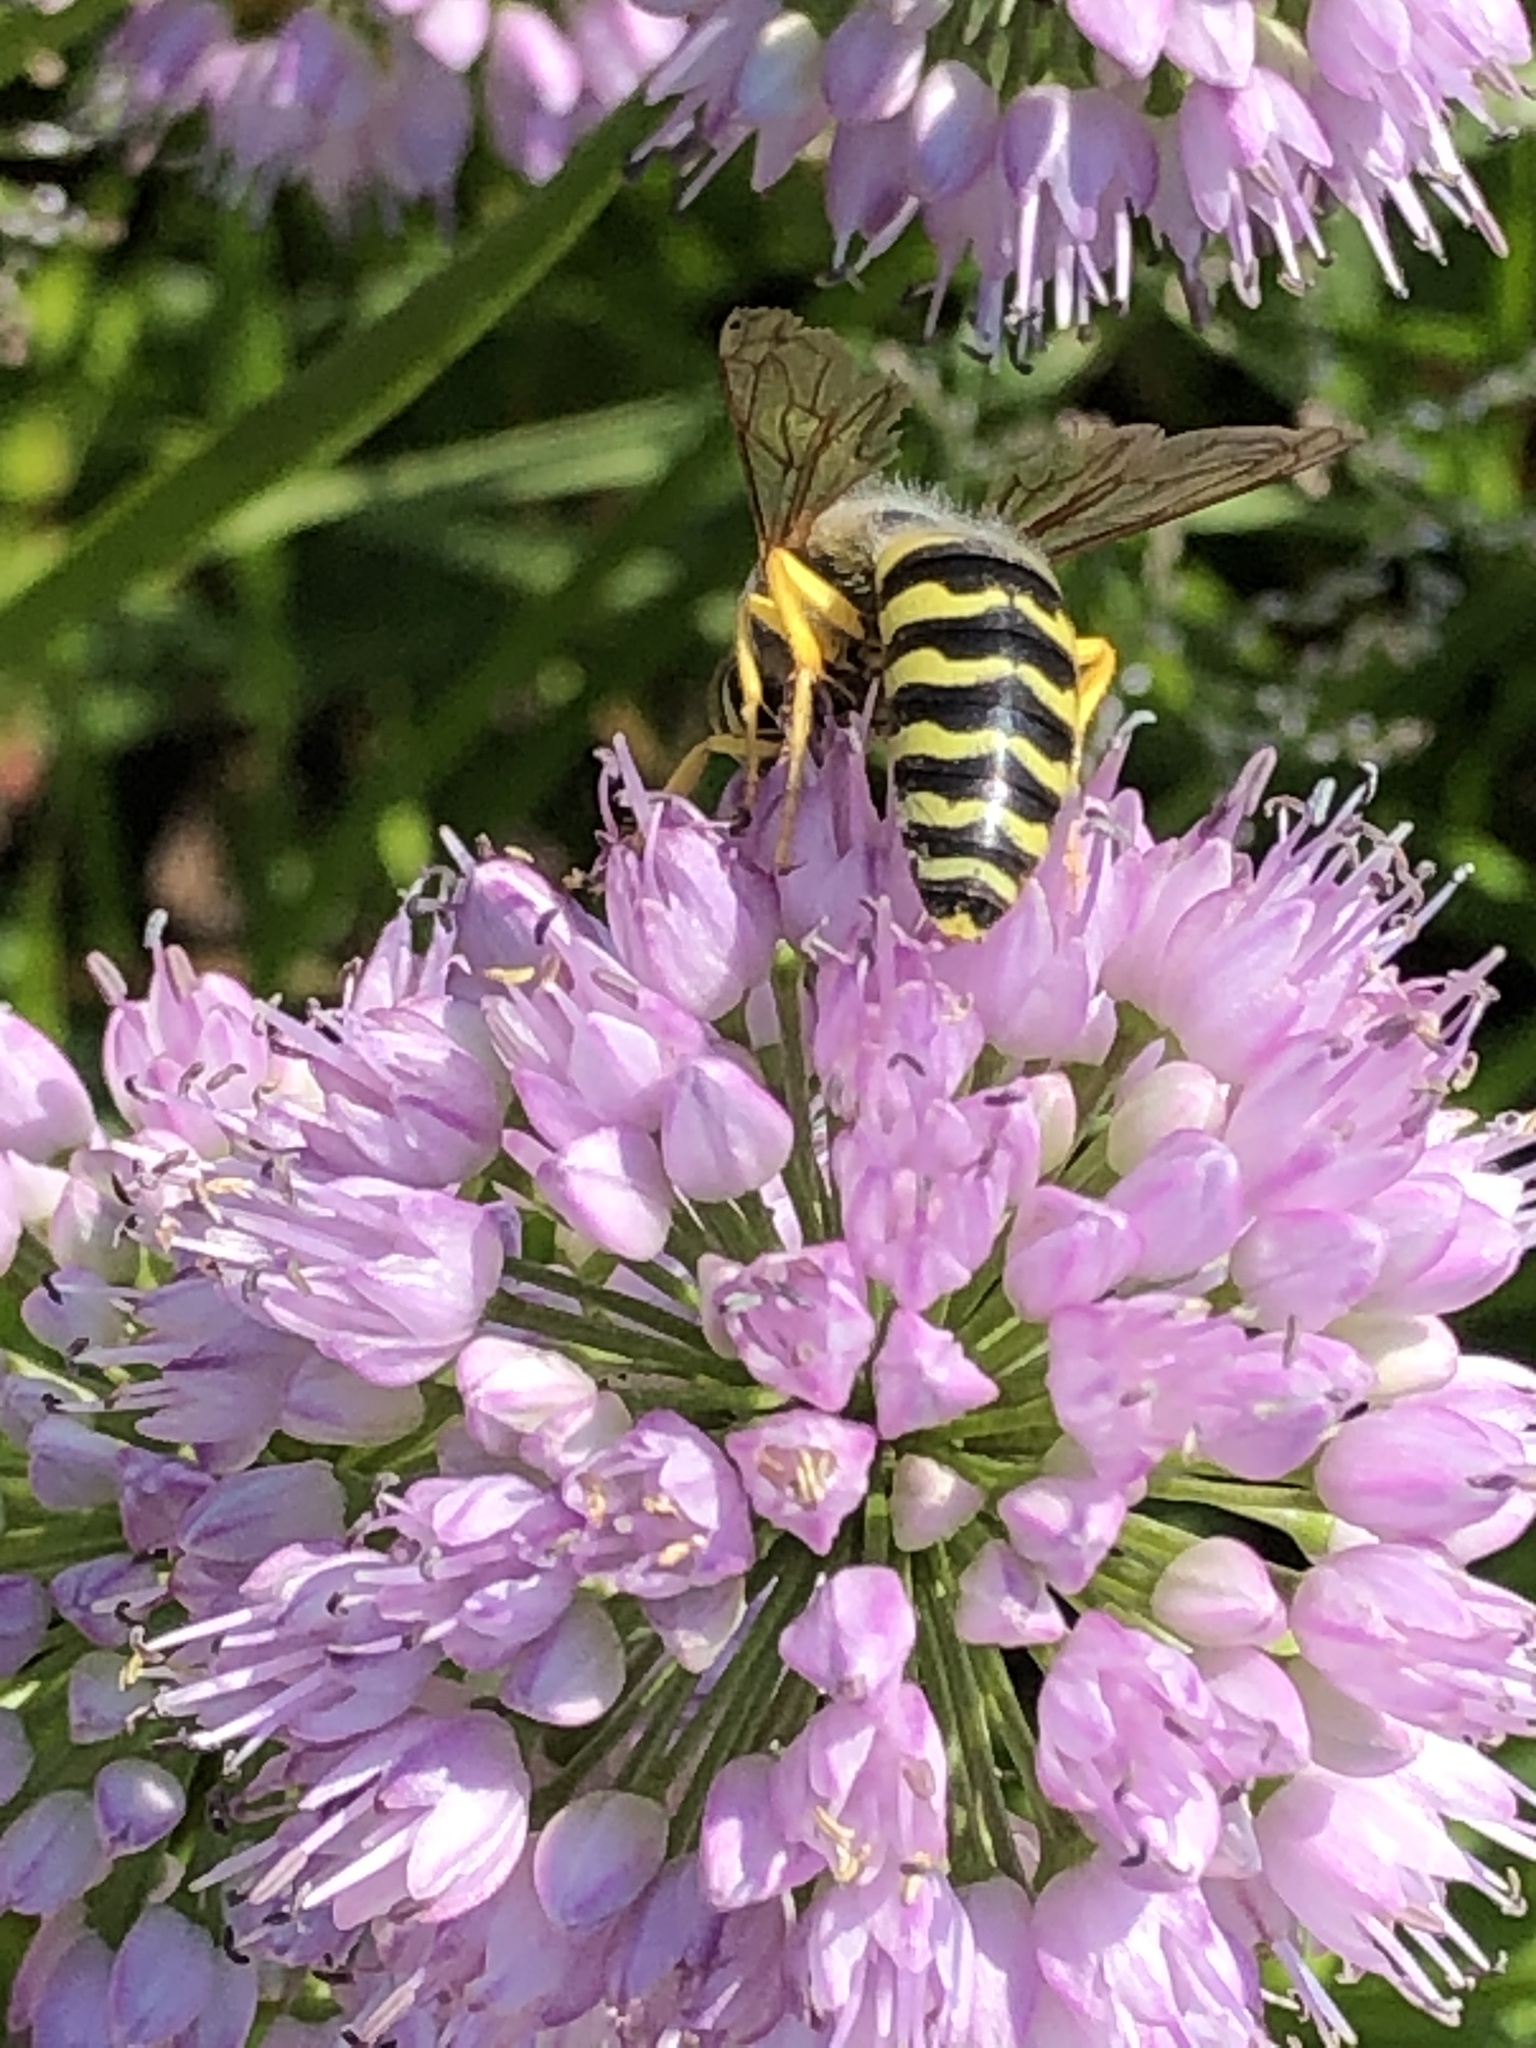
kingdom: Animalia
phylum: Arthropoda
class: Insecta
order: Hymenoptera
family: Crabronidae
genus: Bembix
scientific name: Bembix rostrata
